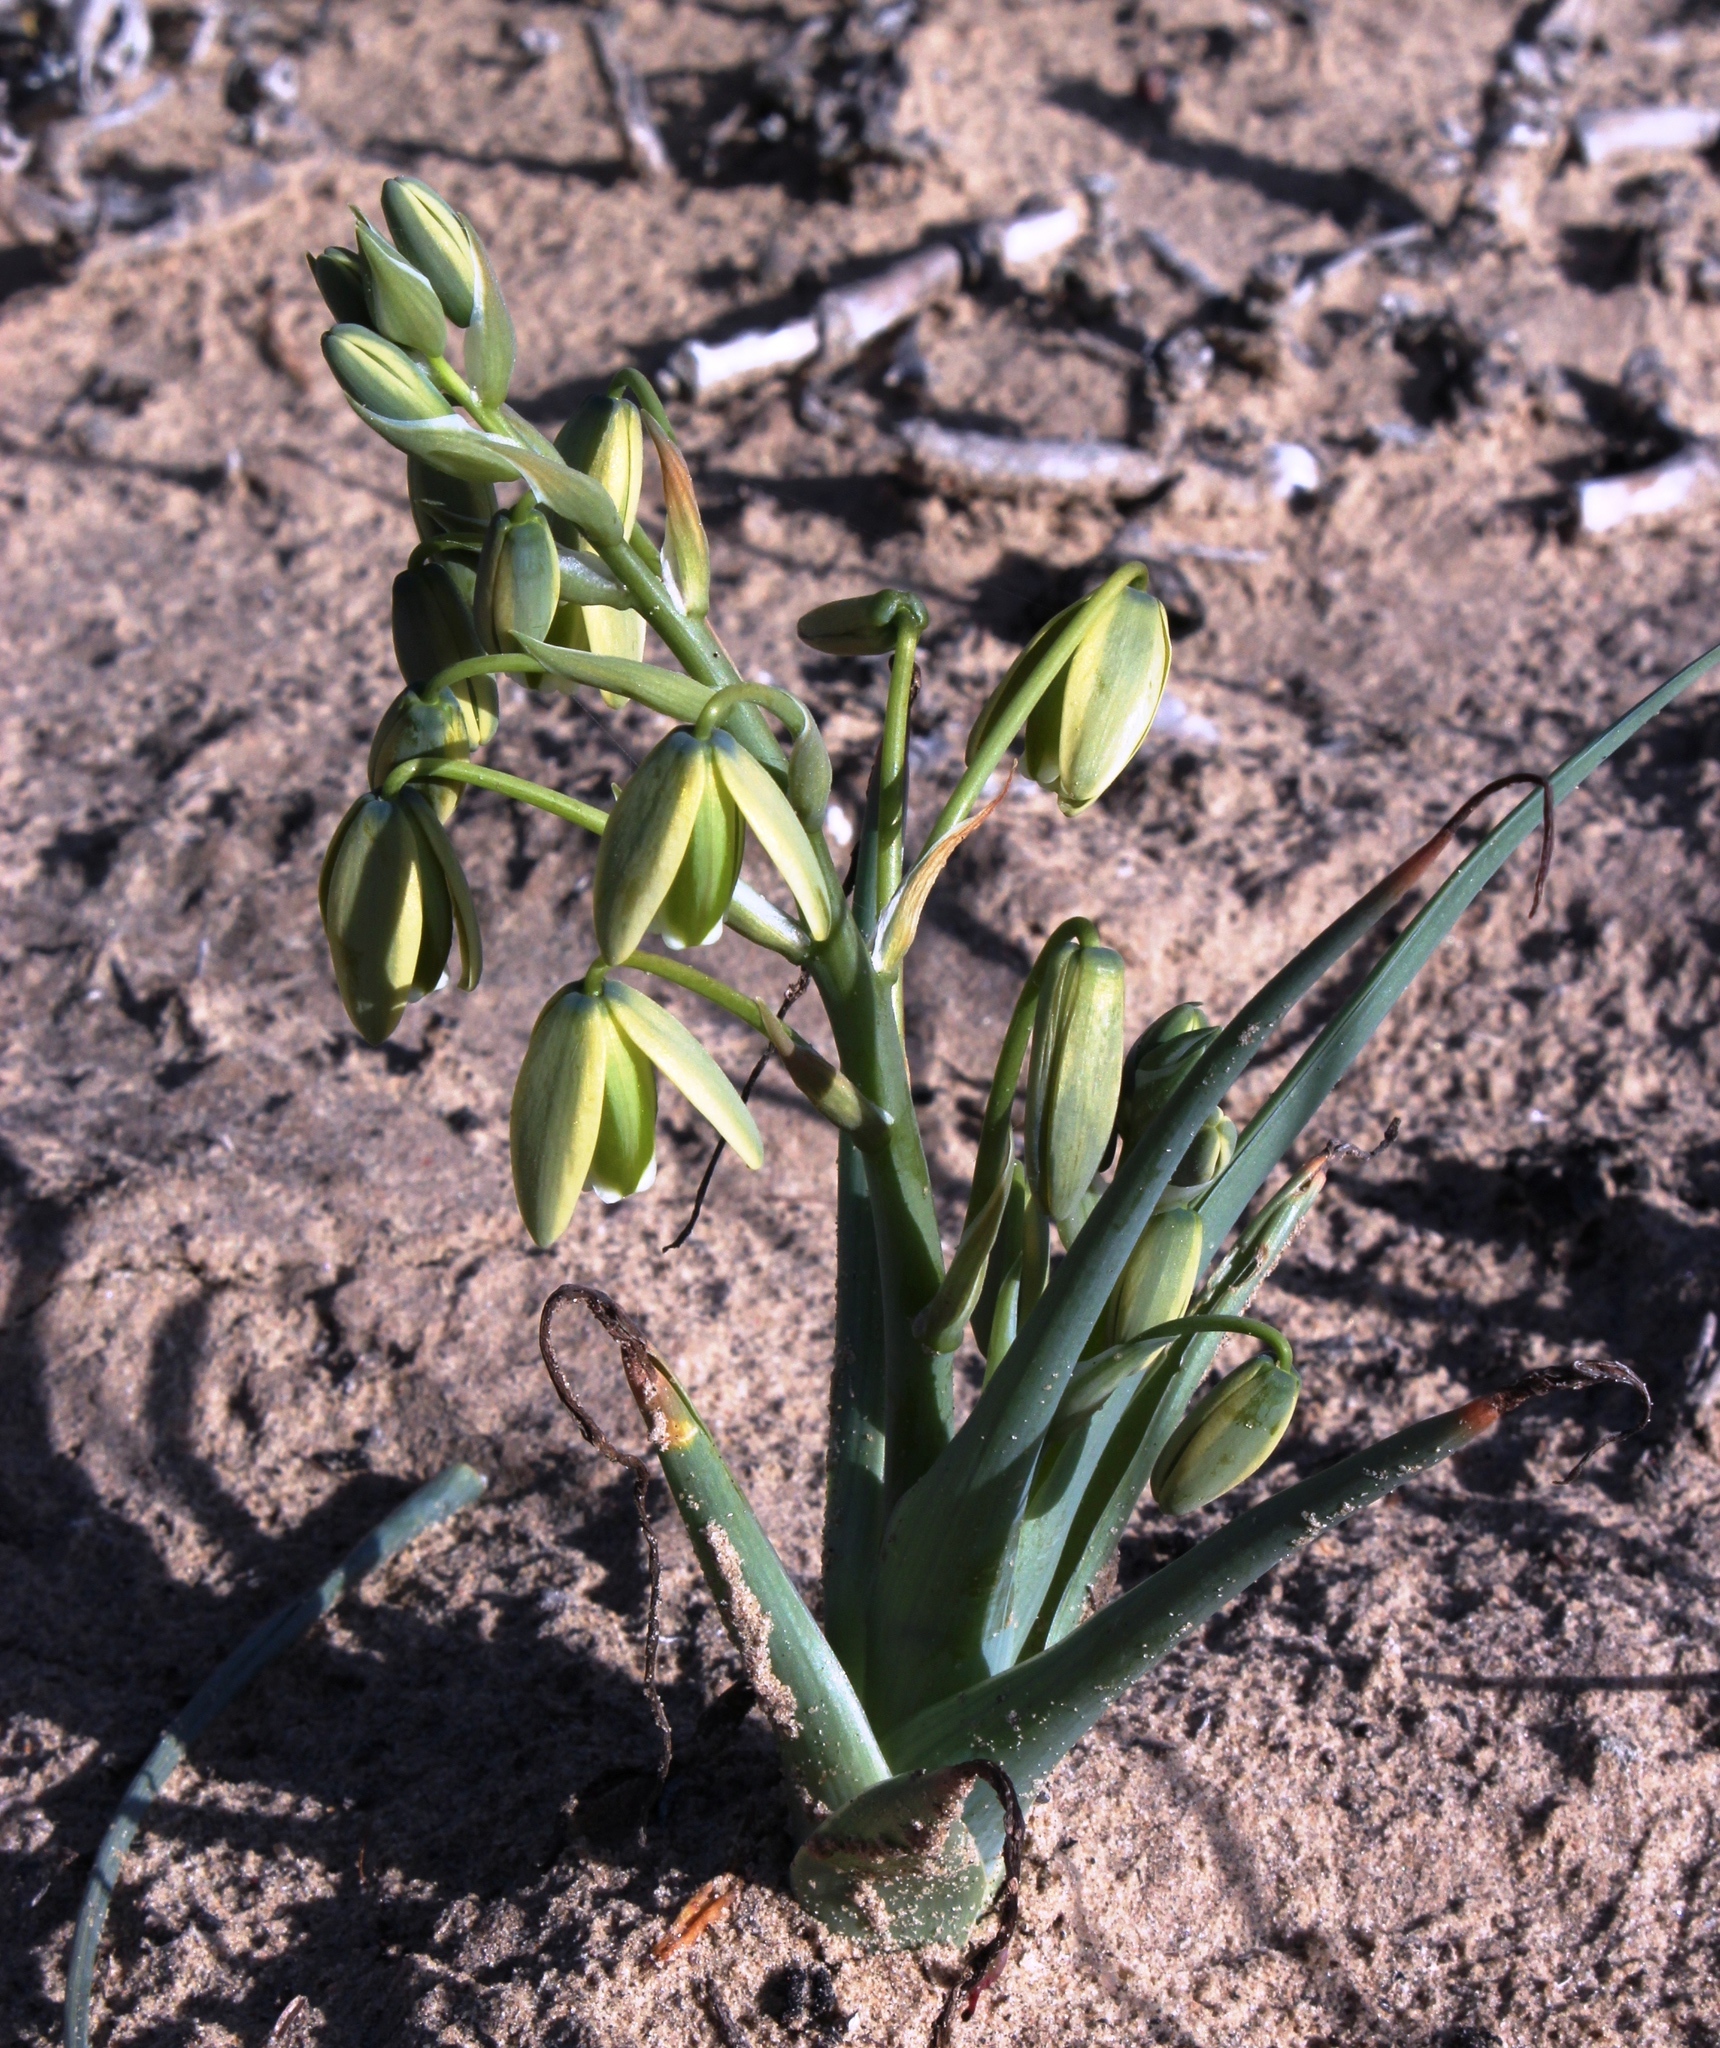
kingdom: Plantae
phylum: Tracheophyta
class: Liliopsida
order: Asparagales
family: Asparagaceae
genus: Albuca
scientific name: Albuca paradoxa
